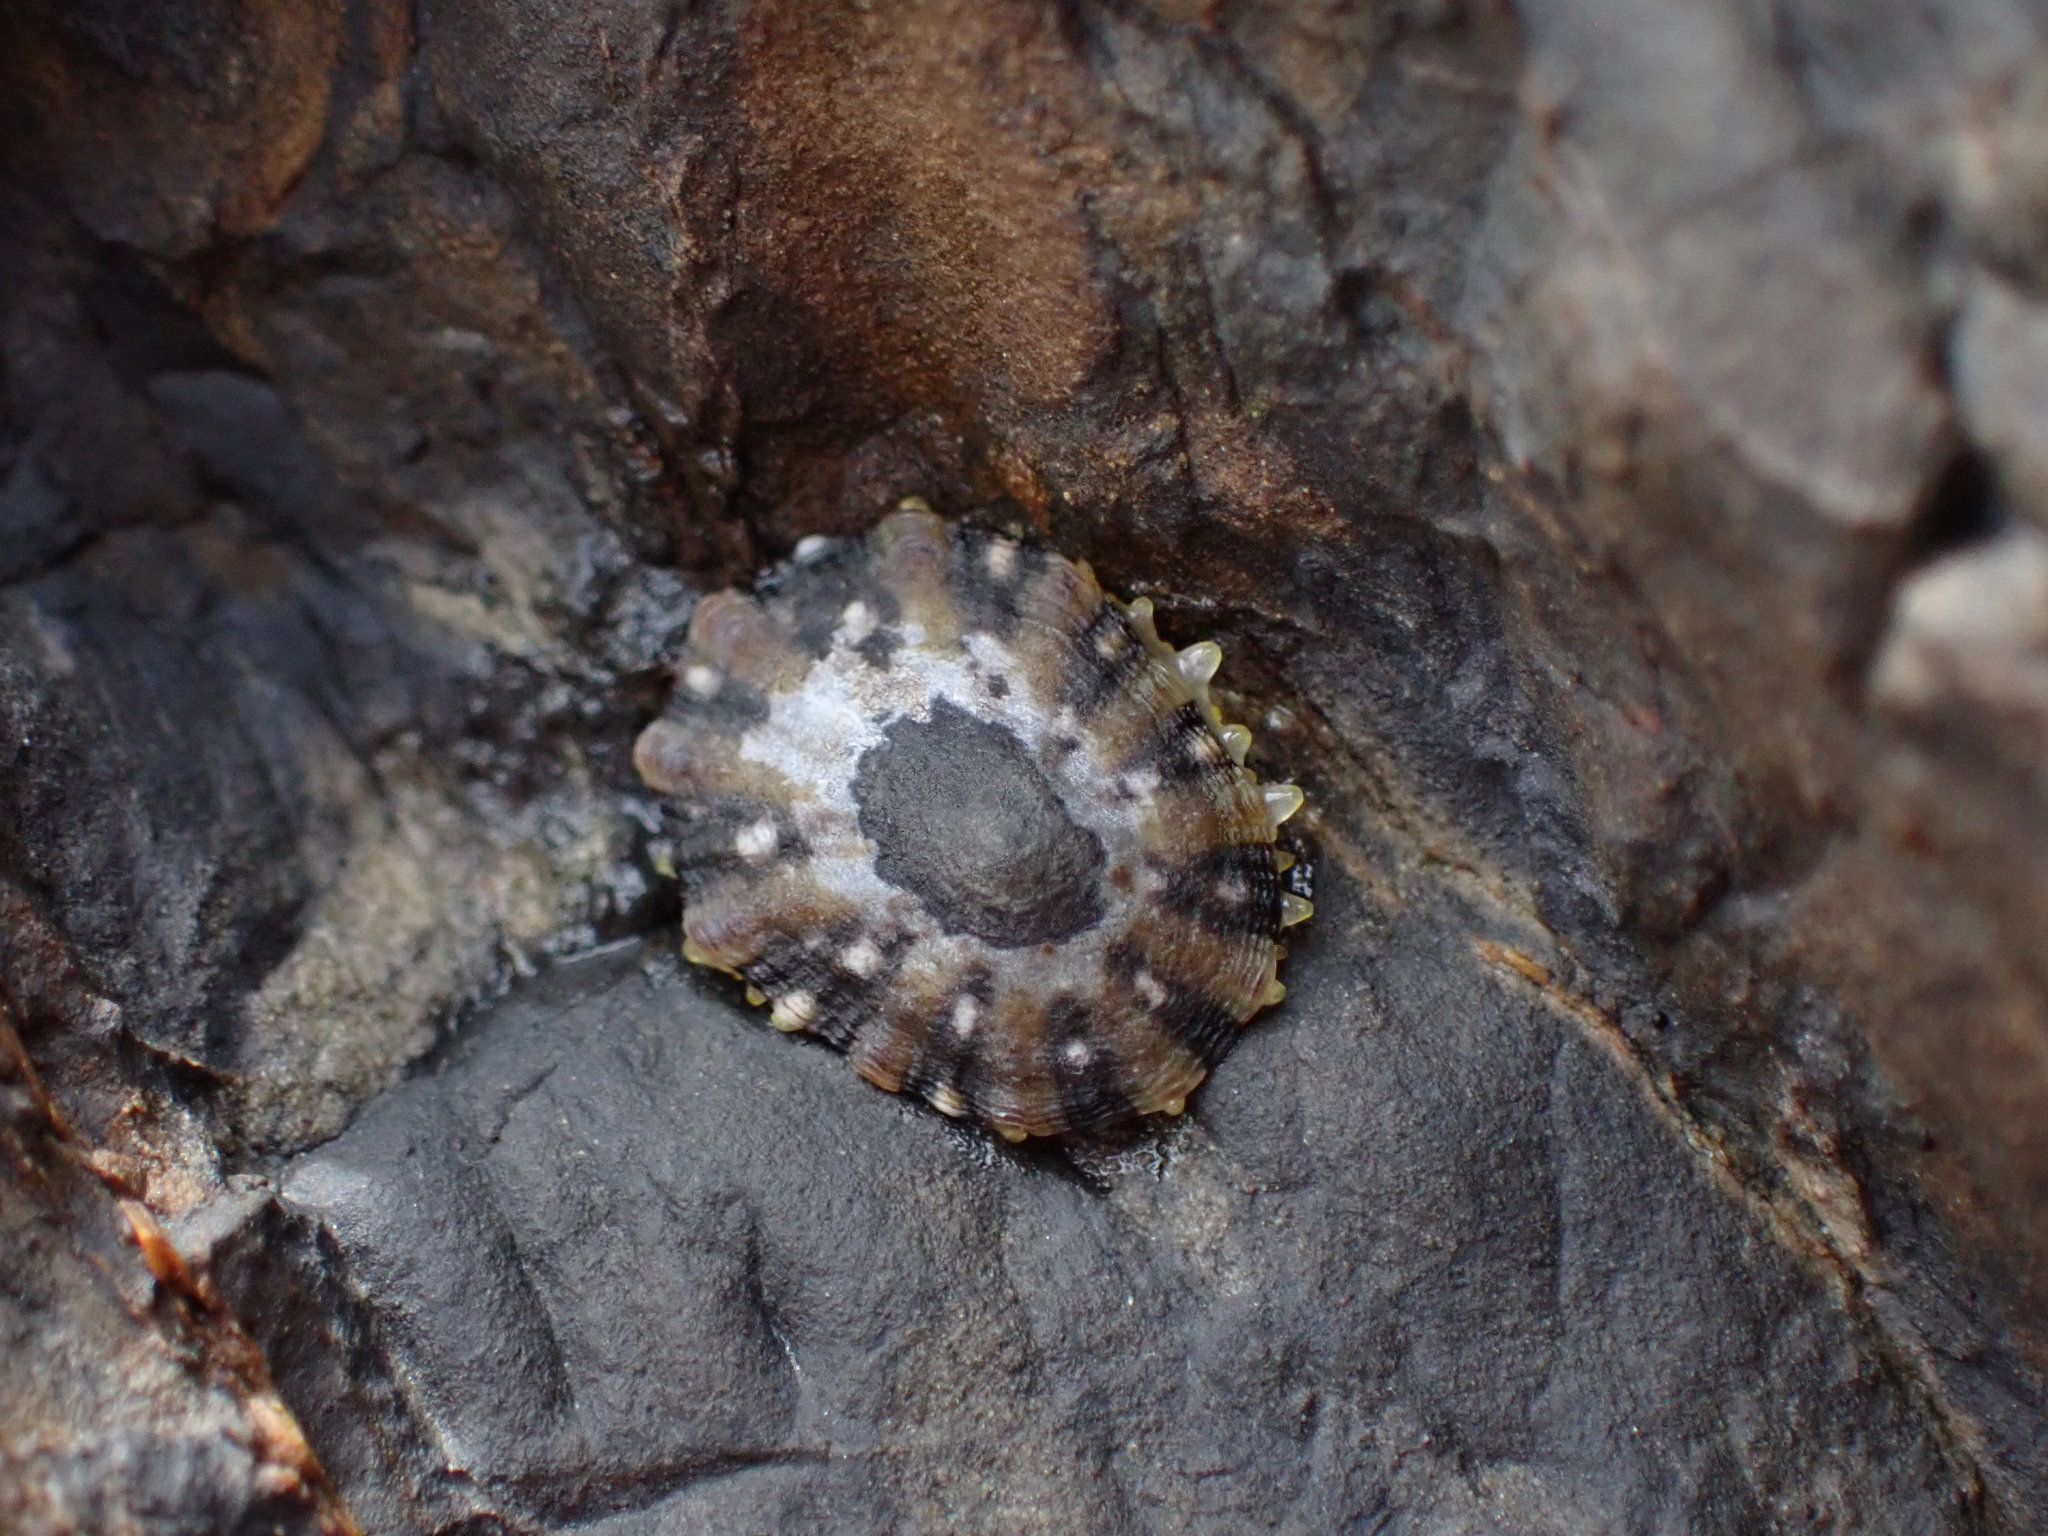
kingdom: Animalia
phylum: Mollusca
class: Gastropoda
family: Nacellidae
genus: Cellana
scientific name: Cellana ornata
